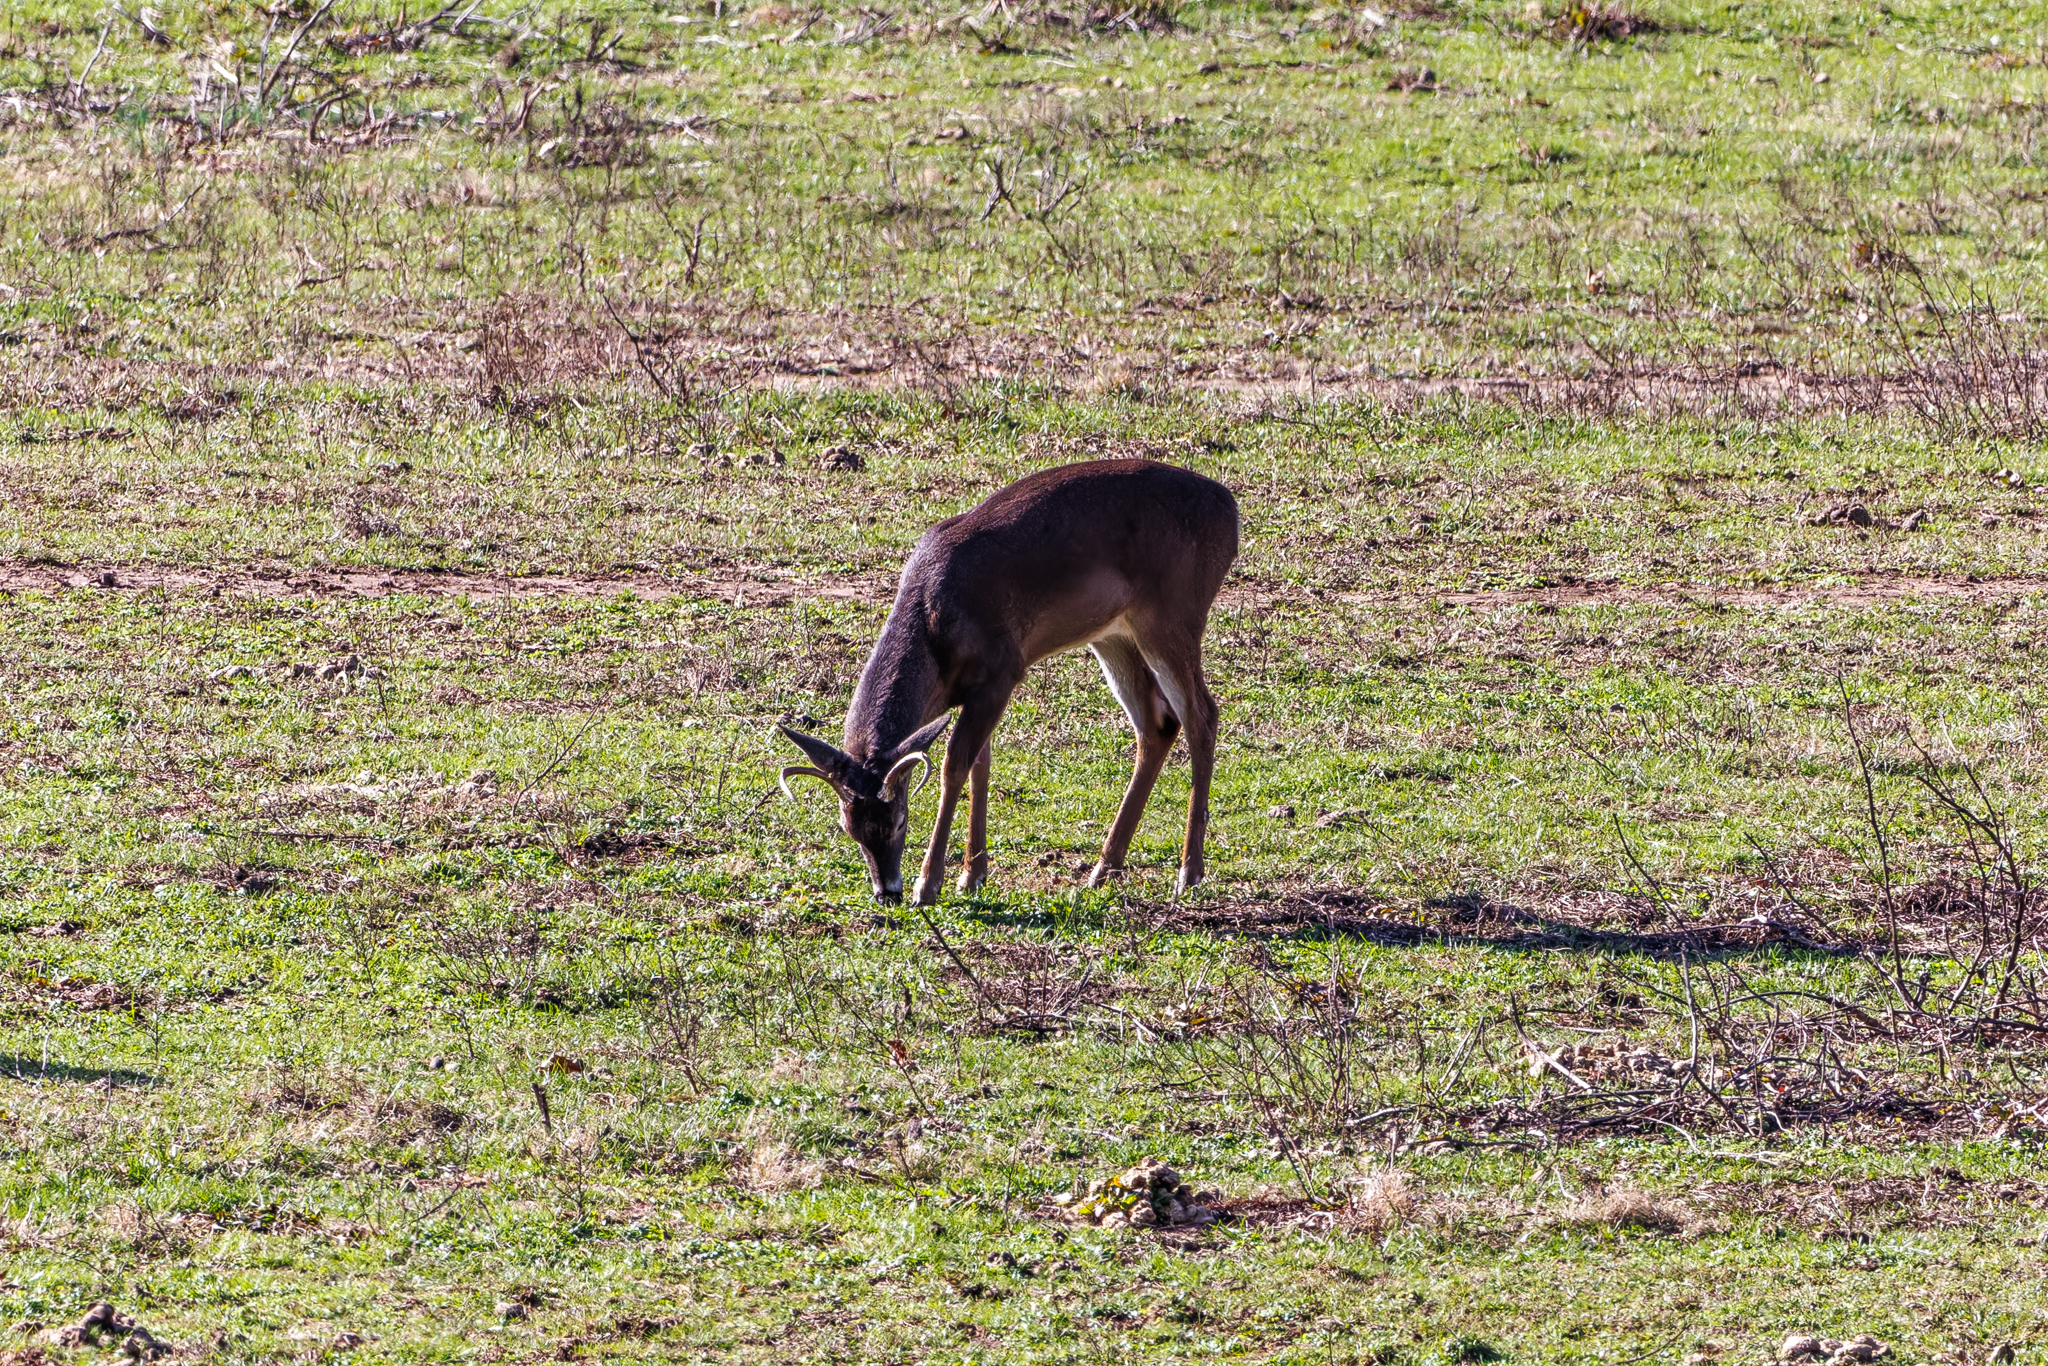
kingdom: Animalia
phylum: Chordata
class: Mammalia
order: Artiodactyla
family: Cervidae
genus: Odocoileus
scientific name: Odocoileus virginianus
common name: White-tailed deer
